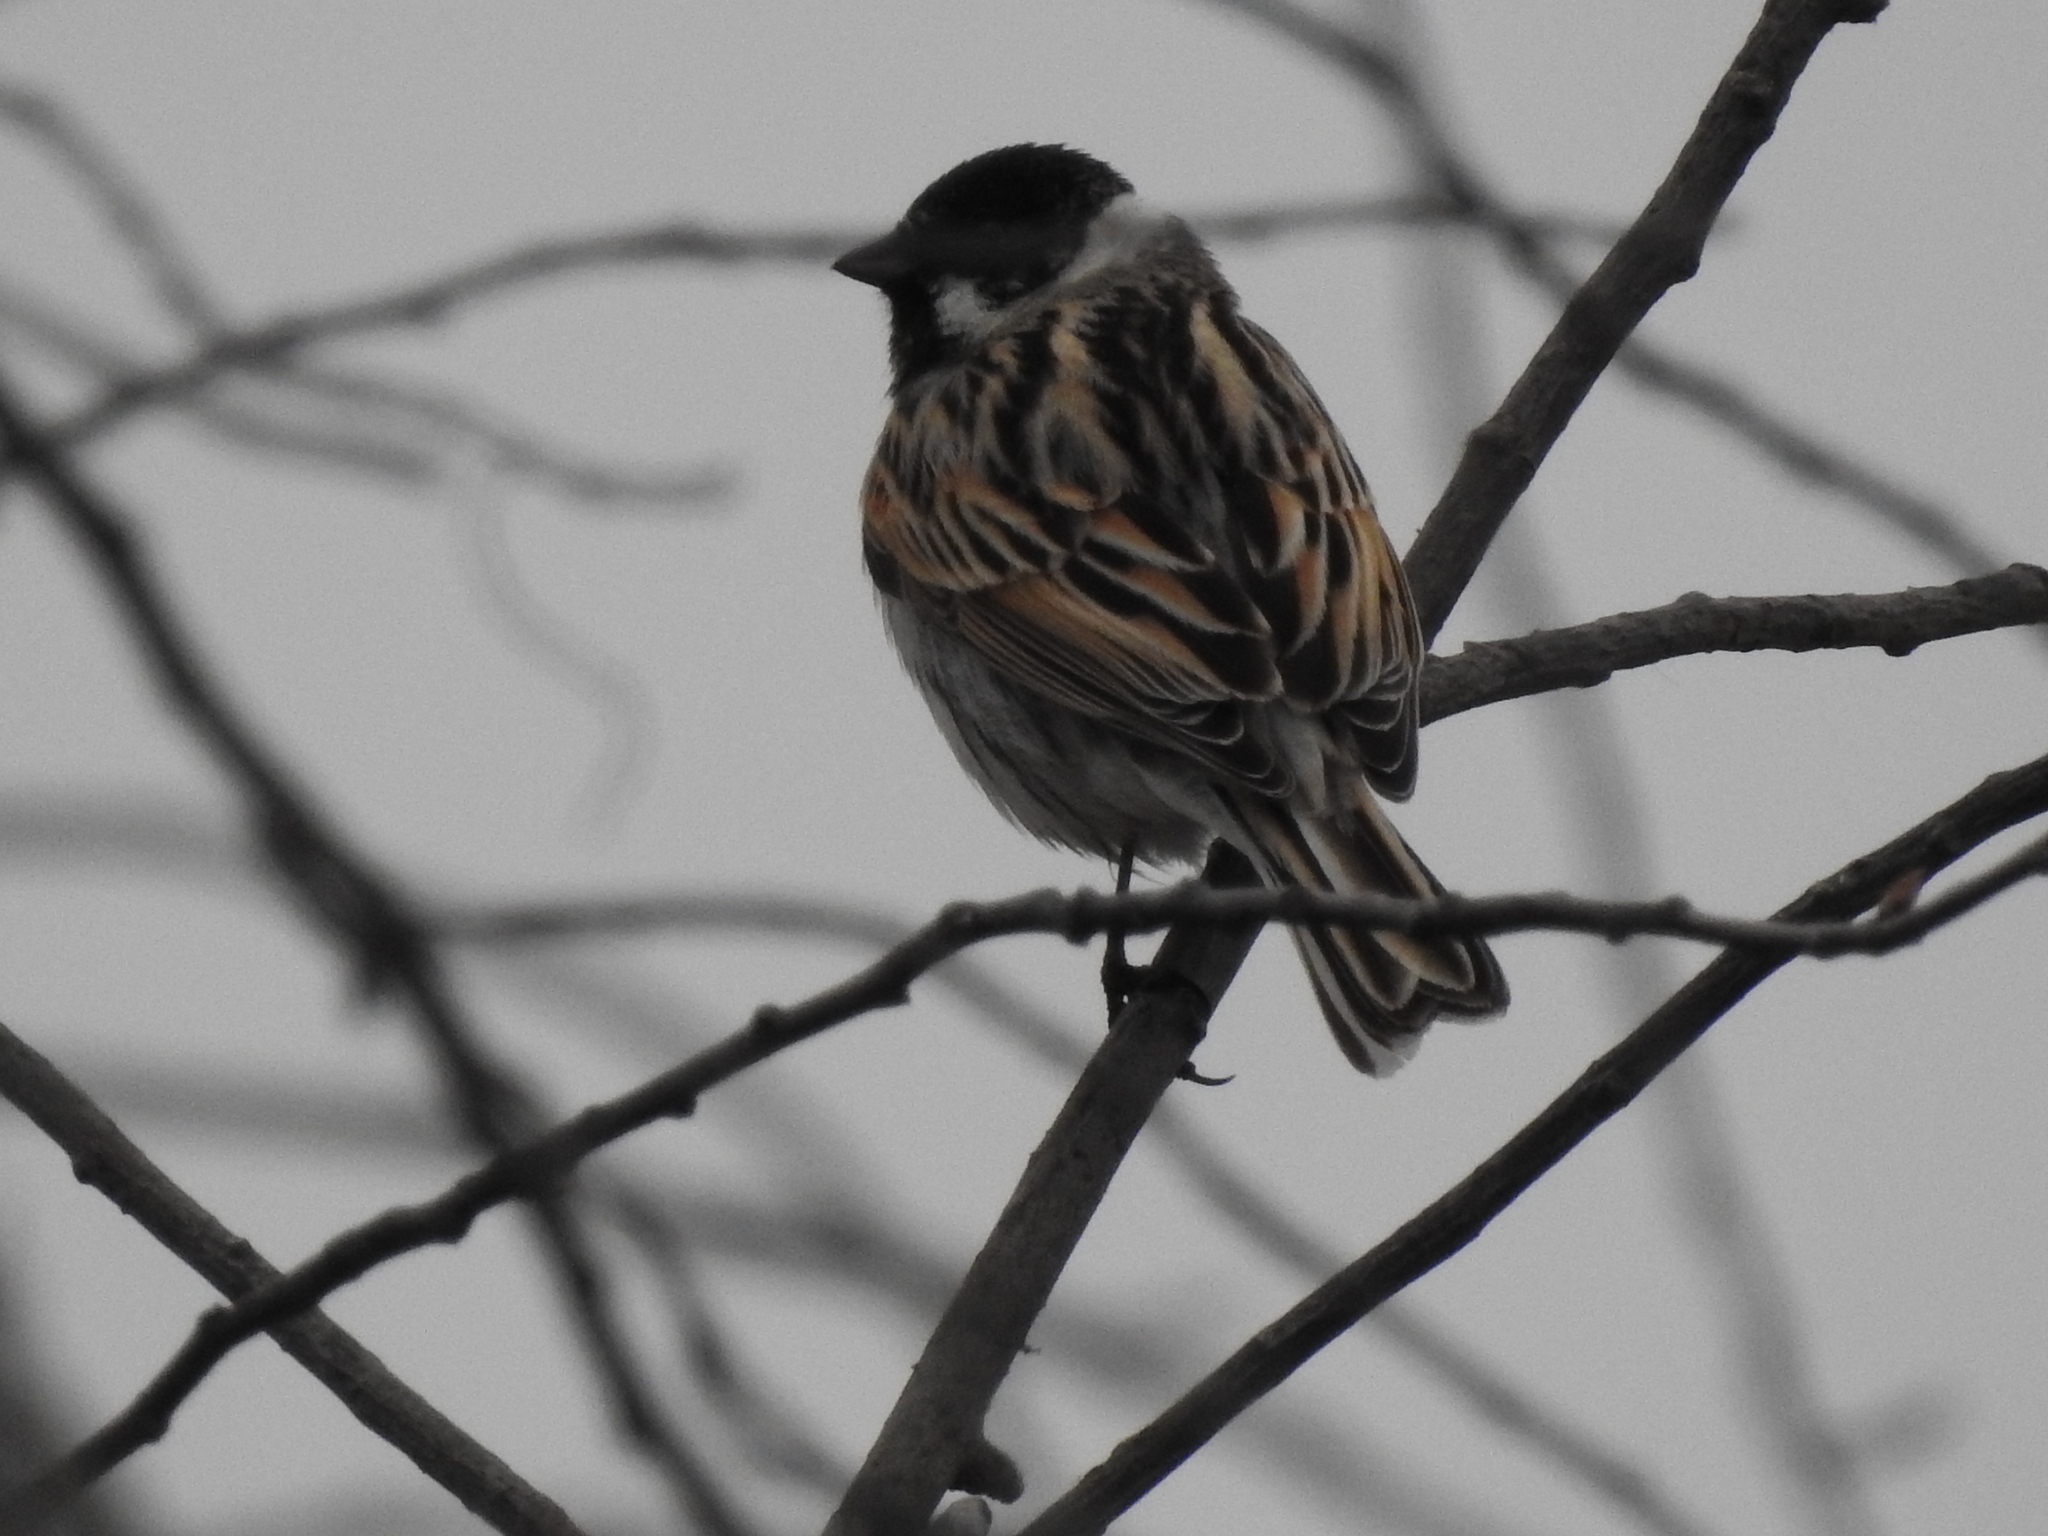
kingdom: Animalia
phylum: Chordata
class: Aves
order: Passeriformes
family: Emberizidae
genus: Emberiza
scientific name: Emberiza schoeniclus
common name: Reed bunting
